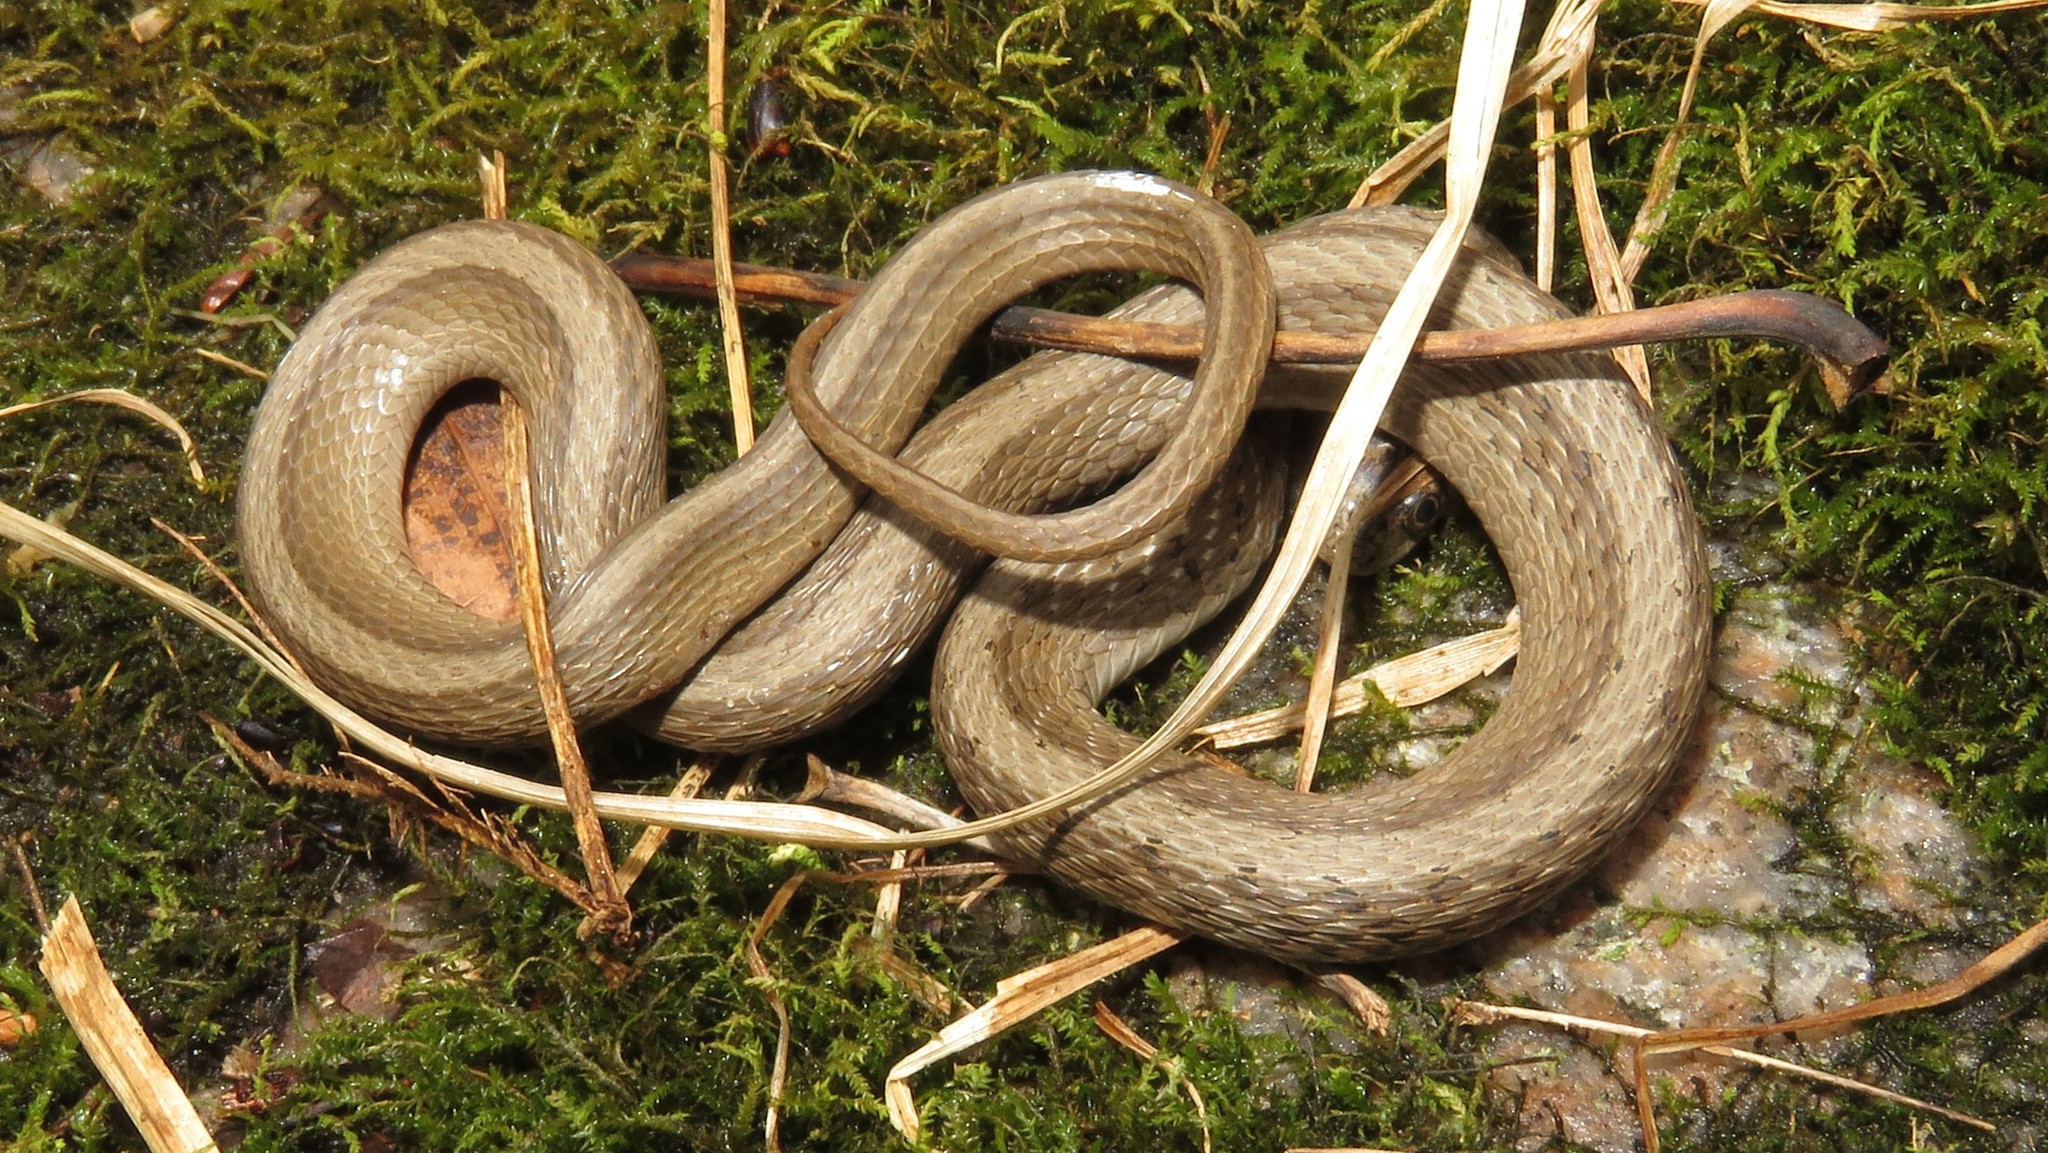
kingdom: Animalia
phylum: Chordata
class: Squamata
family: Colubridae
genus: Storeria
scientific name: Storeria dekayi
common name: (dekay’s) brown snake
